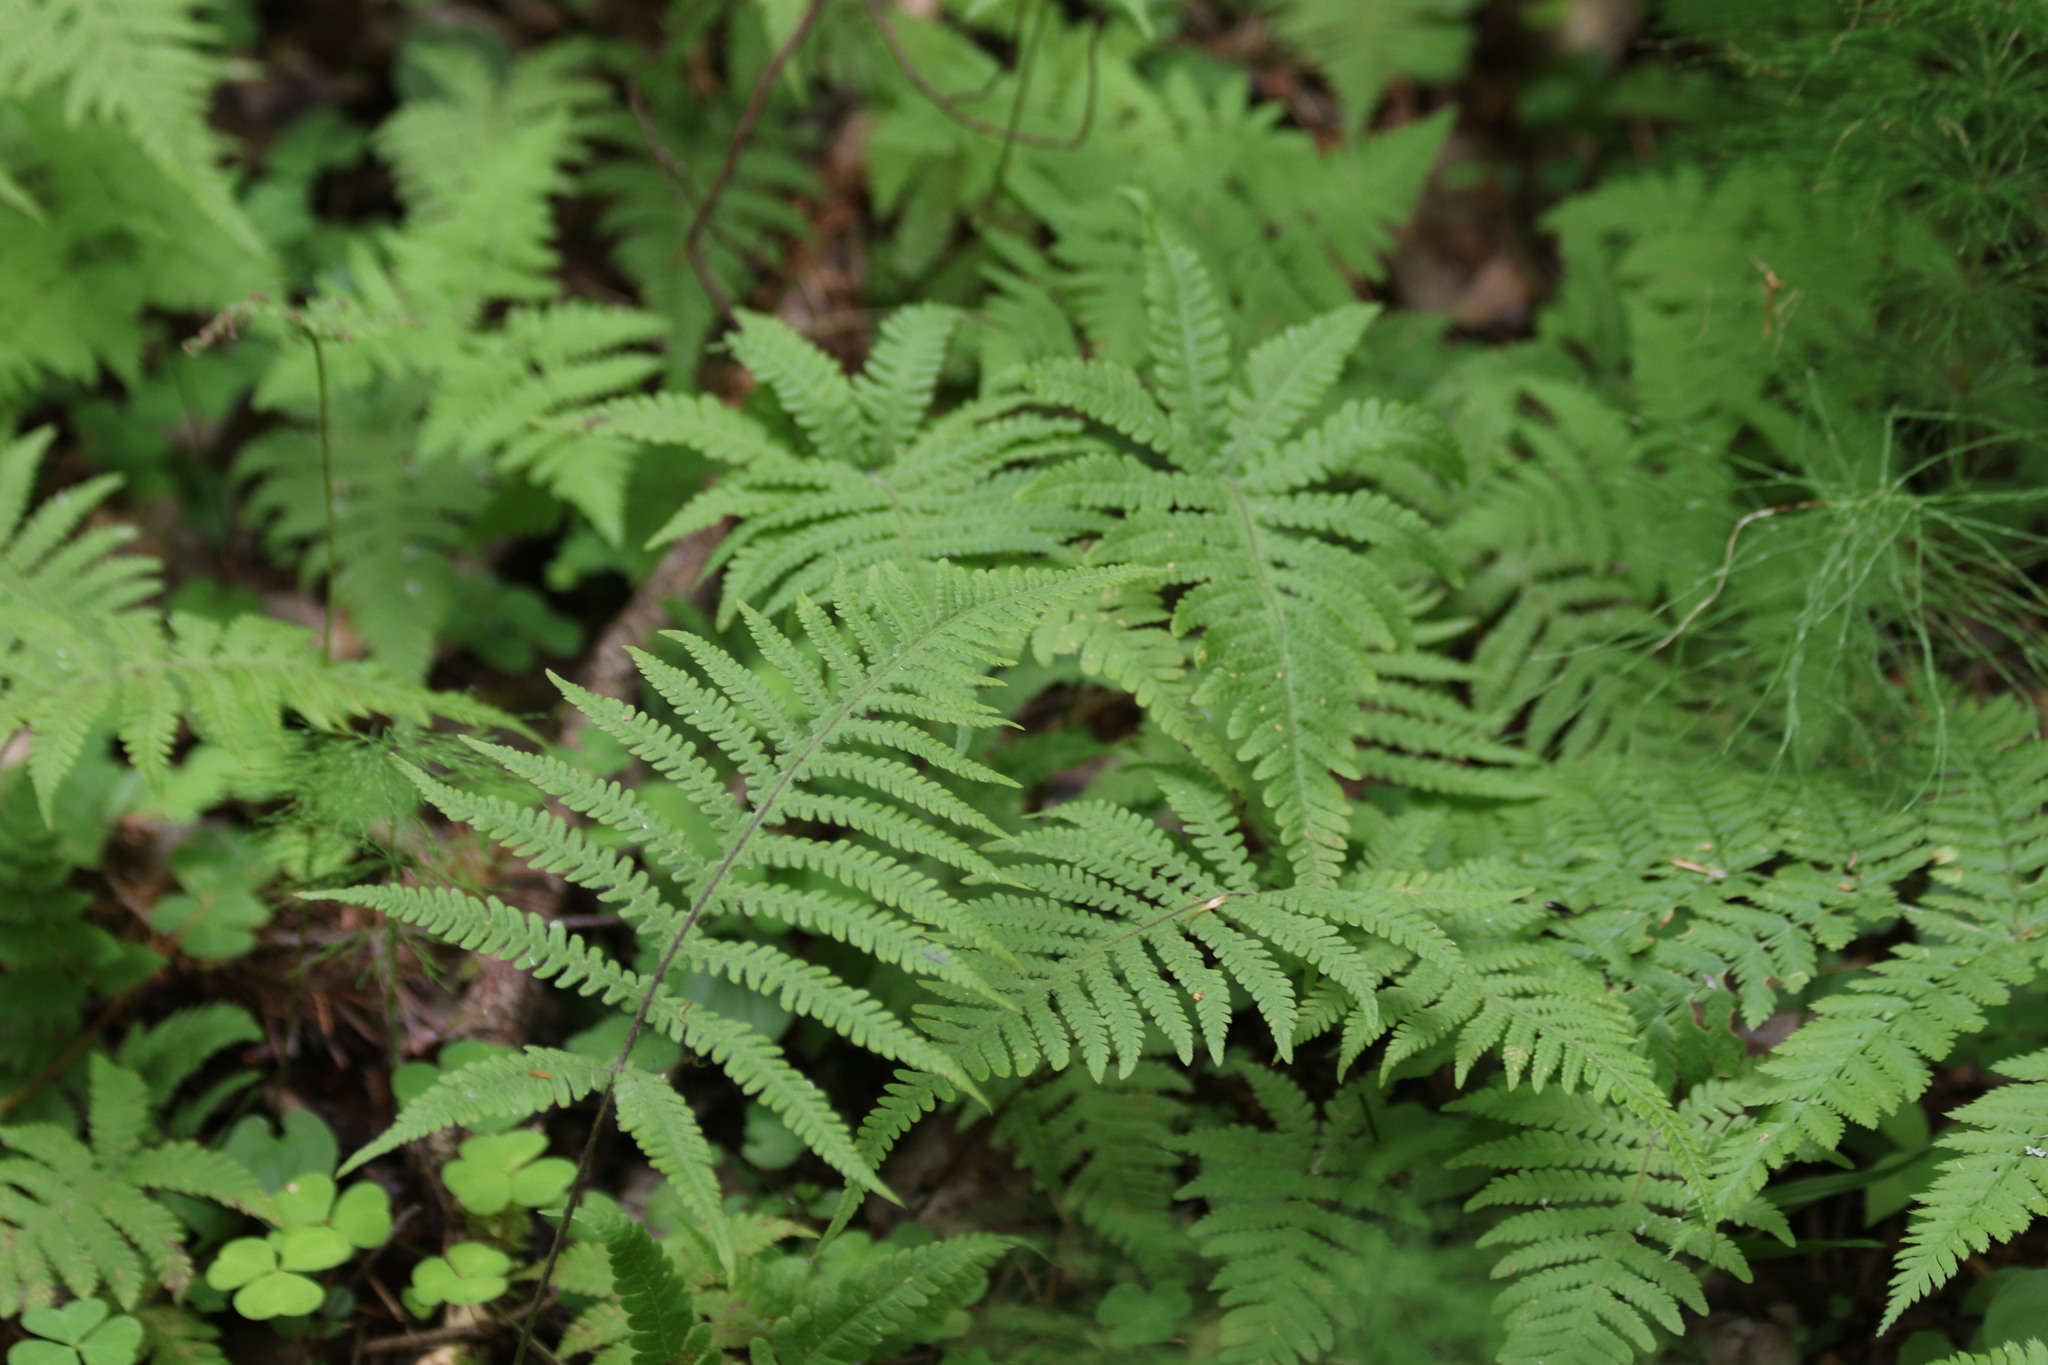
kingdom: Plantae
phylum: Tracheophyta
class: Polypodiopsida
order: Polypodiales
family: Thelypteridaceae
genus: Phegopteris
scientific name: Phegopteris connectilis
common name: Beech fern
